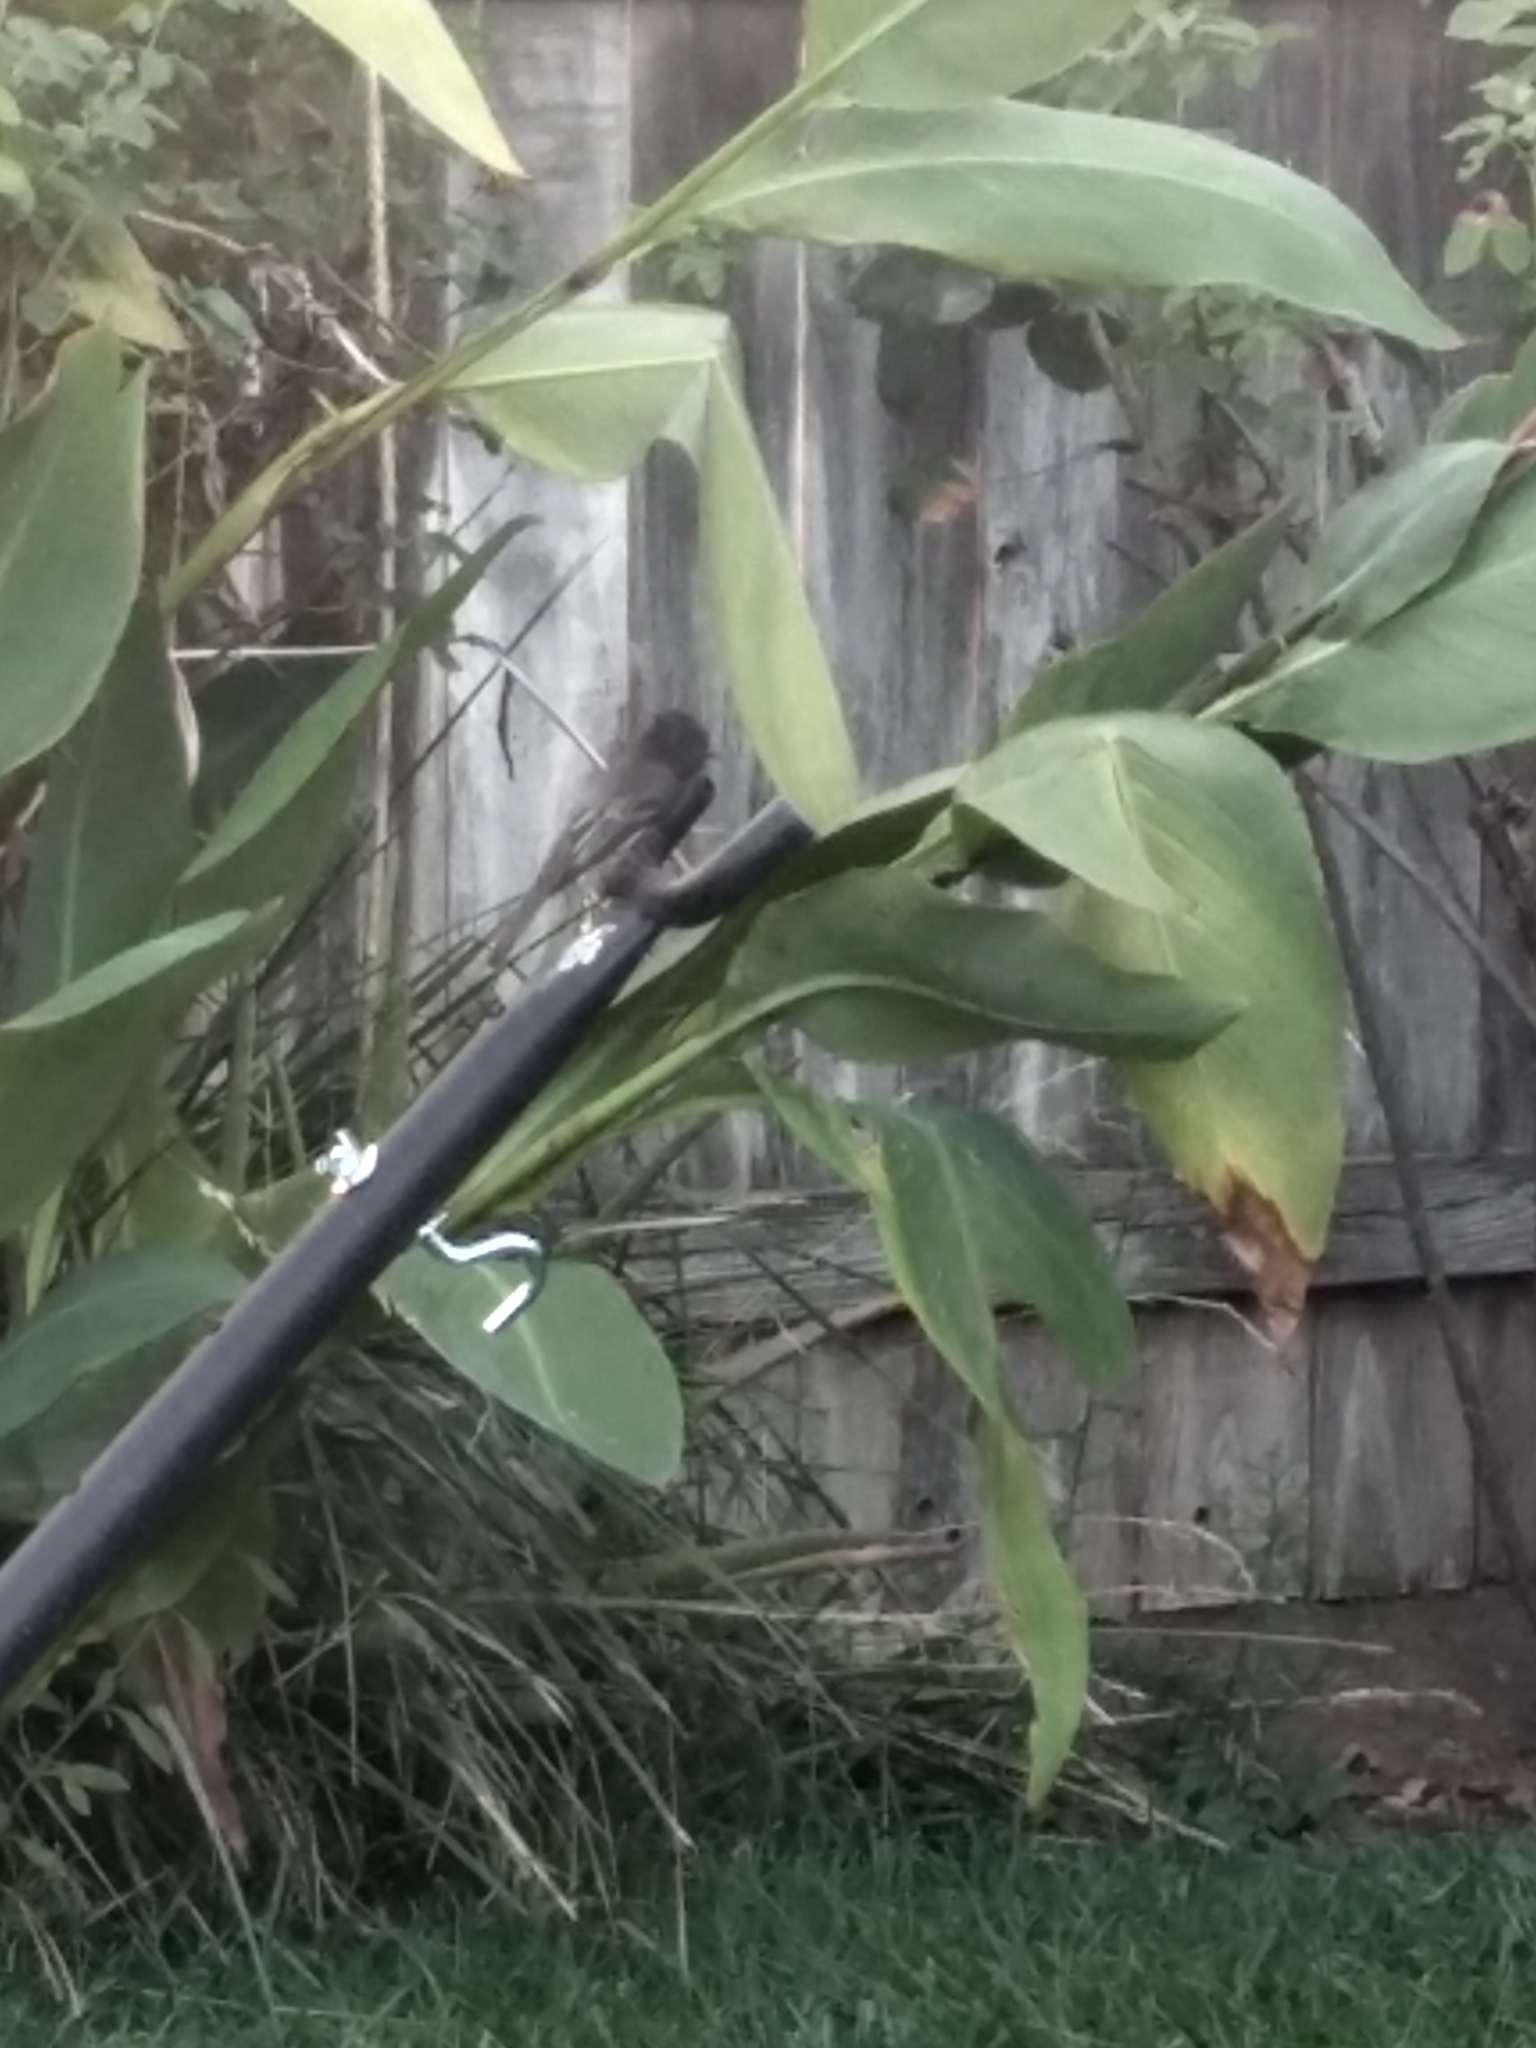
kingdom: Animalia
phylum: Chordata
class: Aves
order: Passeriformes
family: Tyrannidae
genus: Sayornis
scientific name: Sayornis nigricans
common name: Black phoebe
